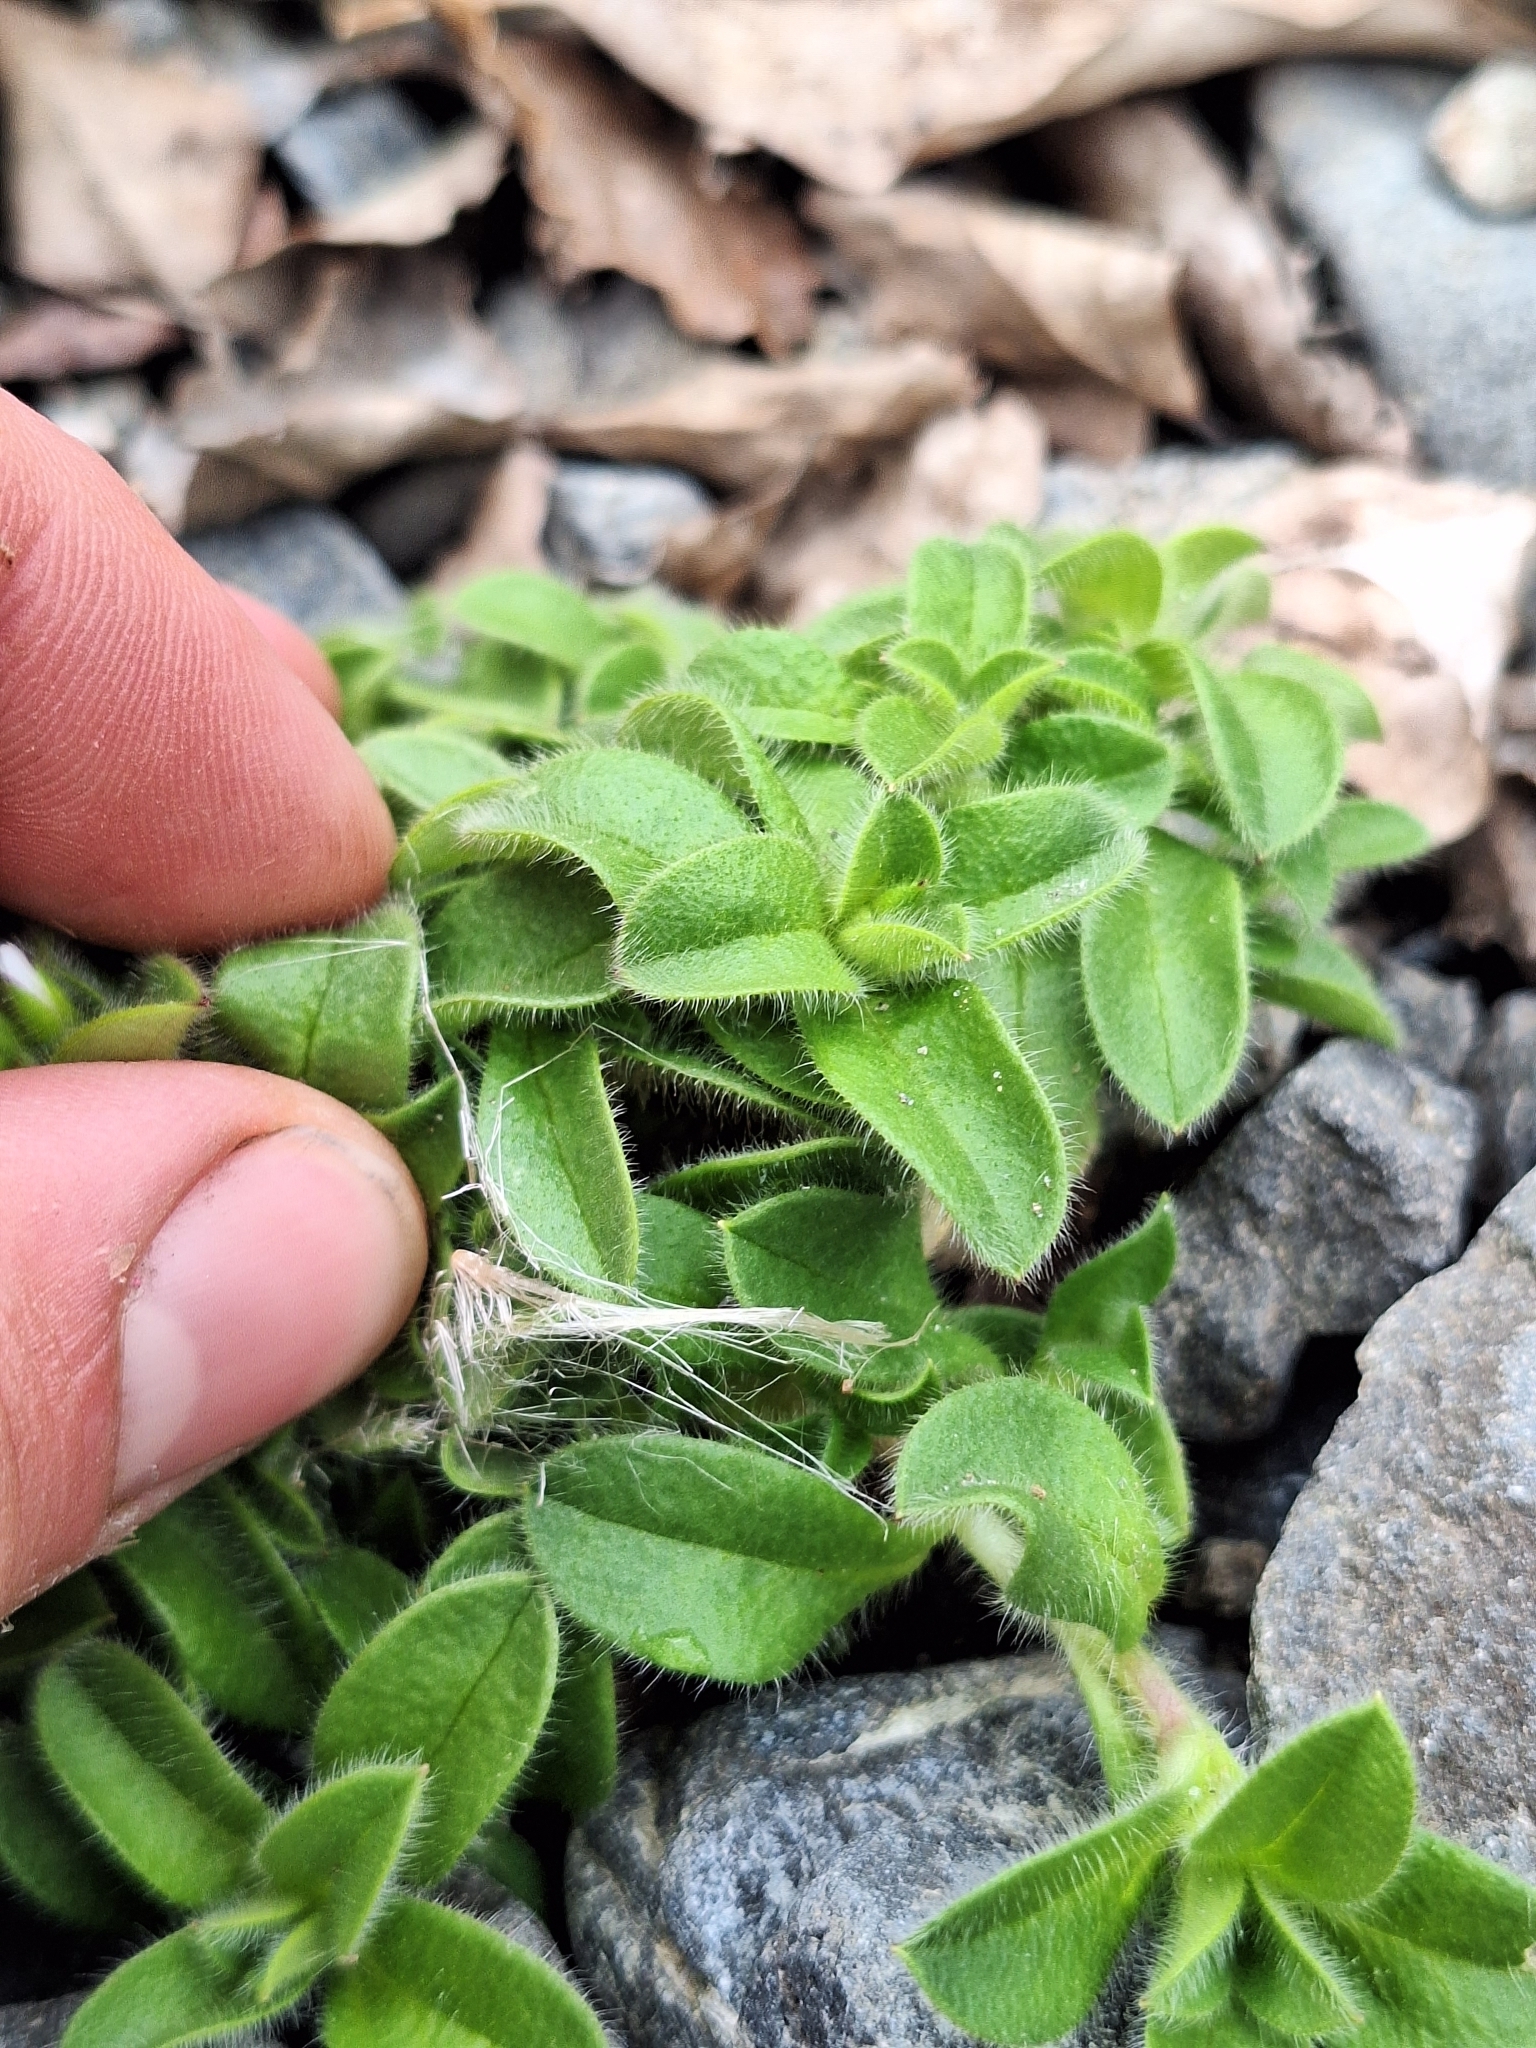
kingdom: Plantae
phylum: Tracheophyta
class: Magnoliopsida
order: Caryophyllales
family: Caryophyllaceae
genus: Cerastium
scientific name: Cerastium glomeratum
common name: Sticky chickweed
